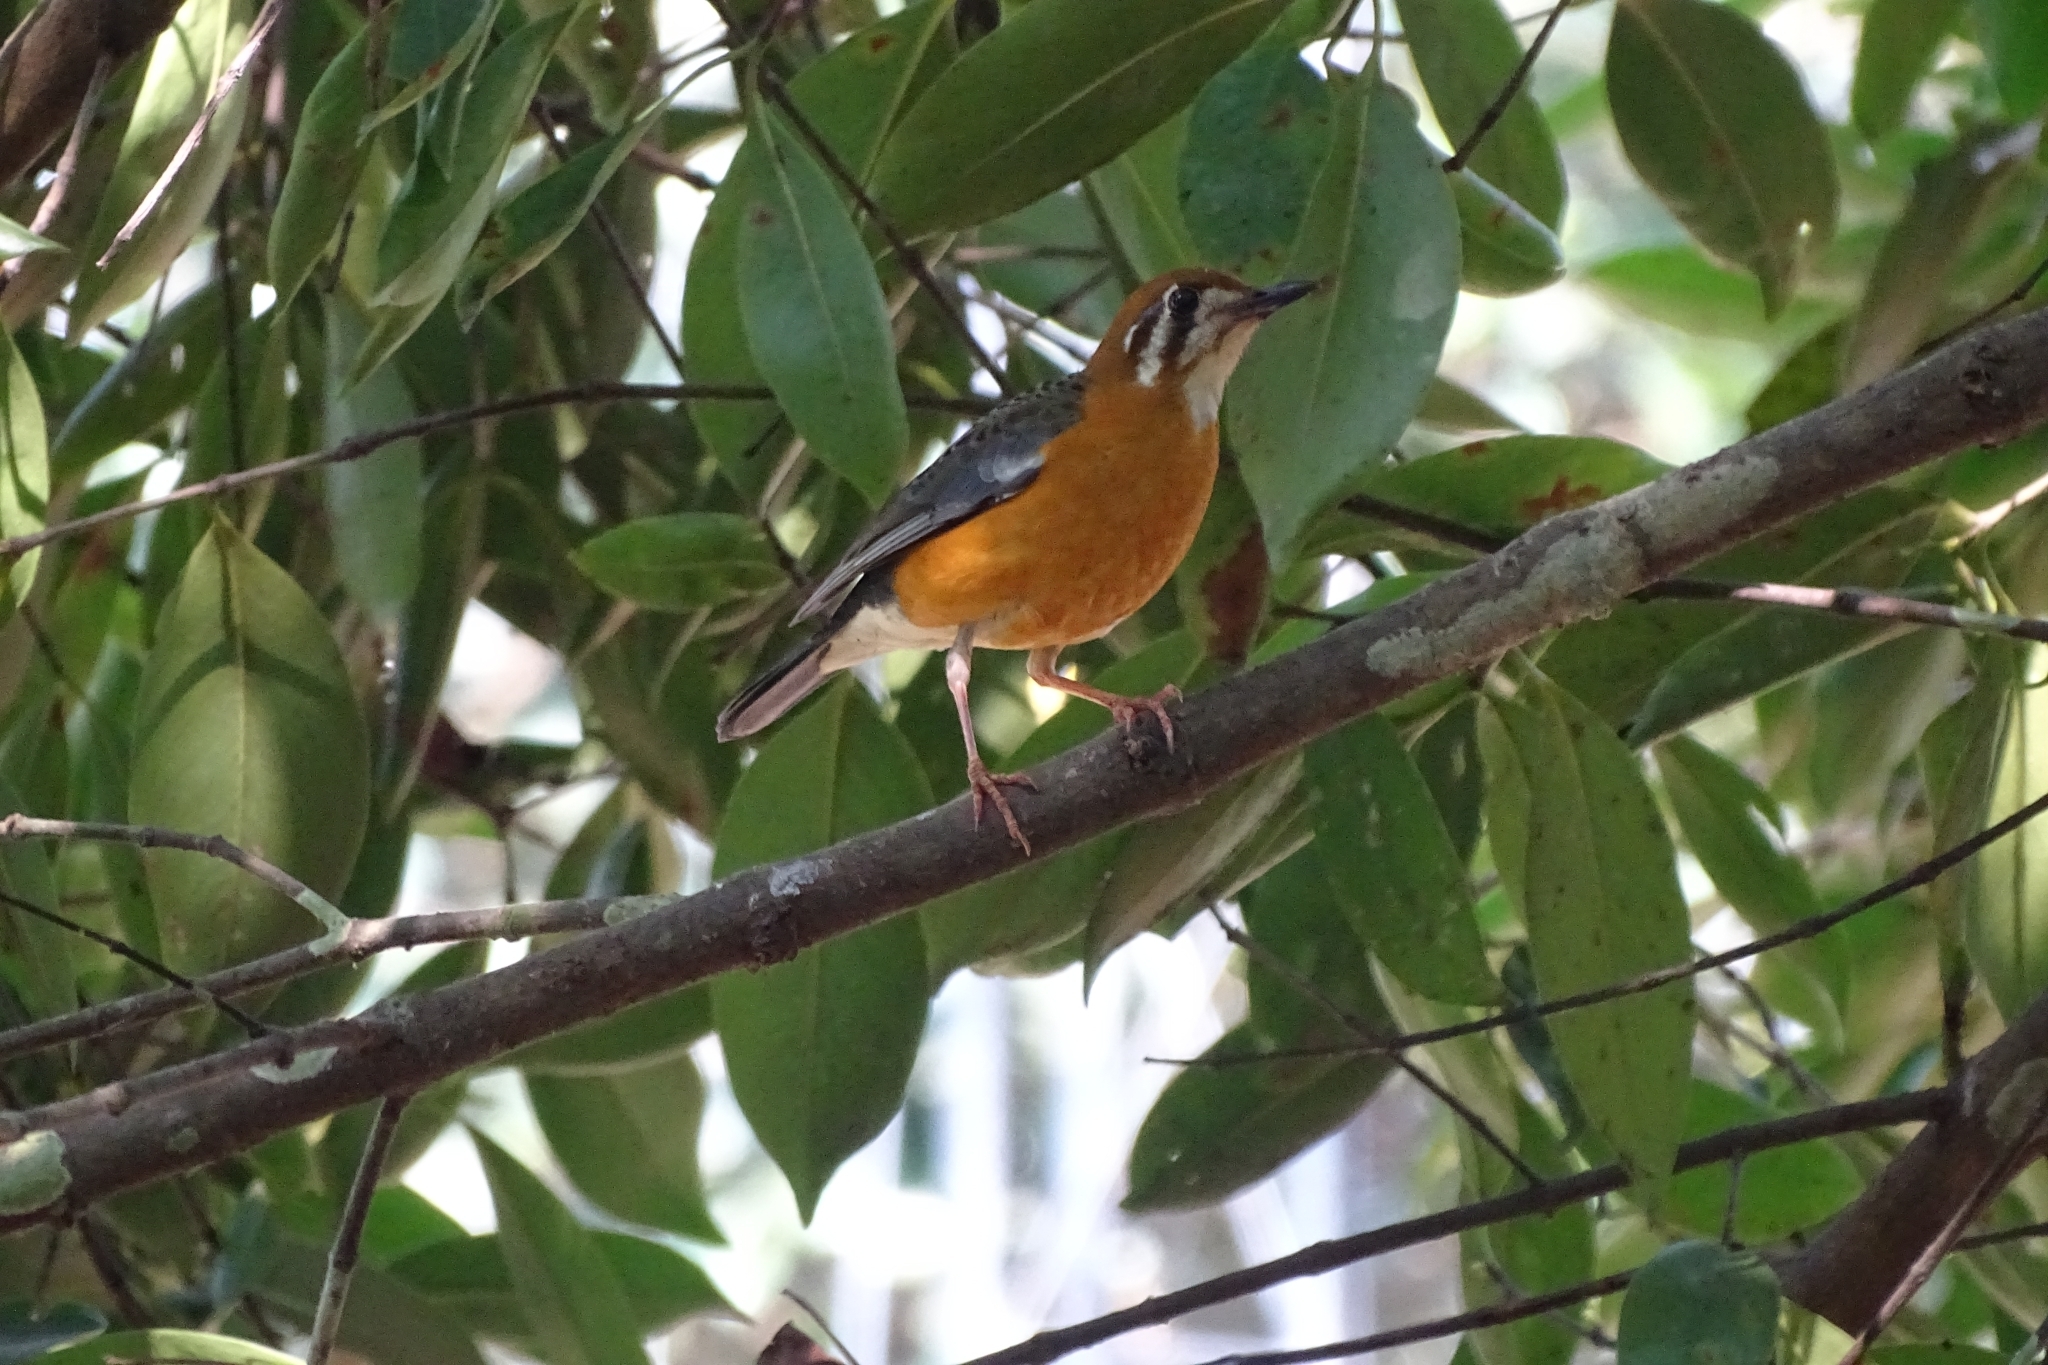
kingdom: Animalia
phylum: Chordata
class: Aves
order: Passeriformes
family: Turdidae
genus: Geokichla
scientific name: Geokichla citrina
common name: Orange-headed thrush
